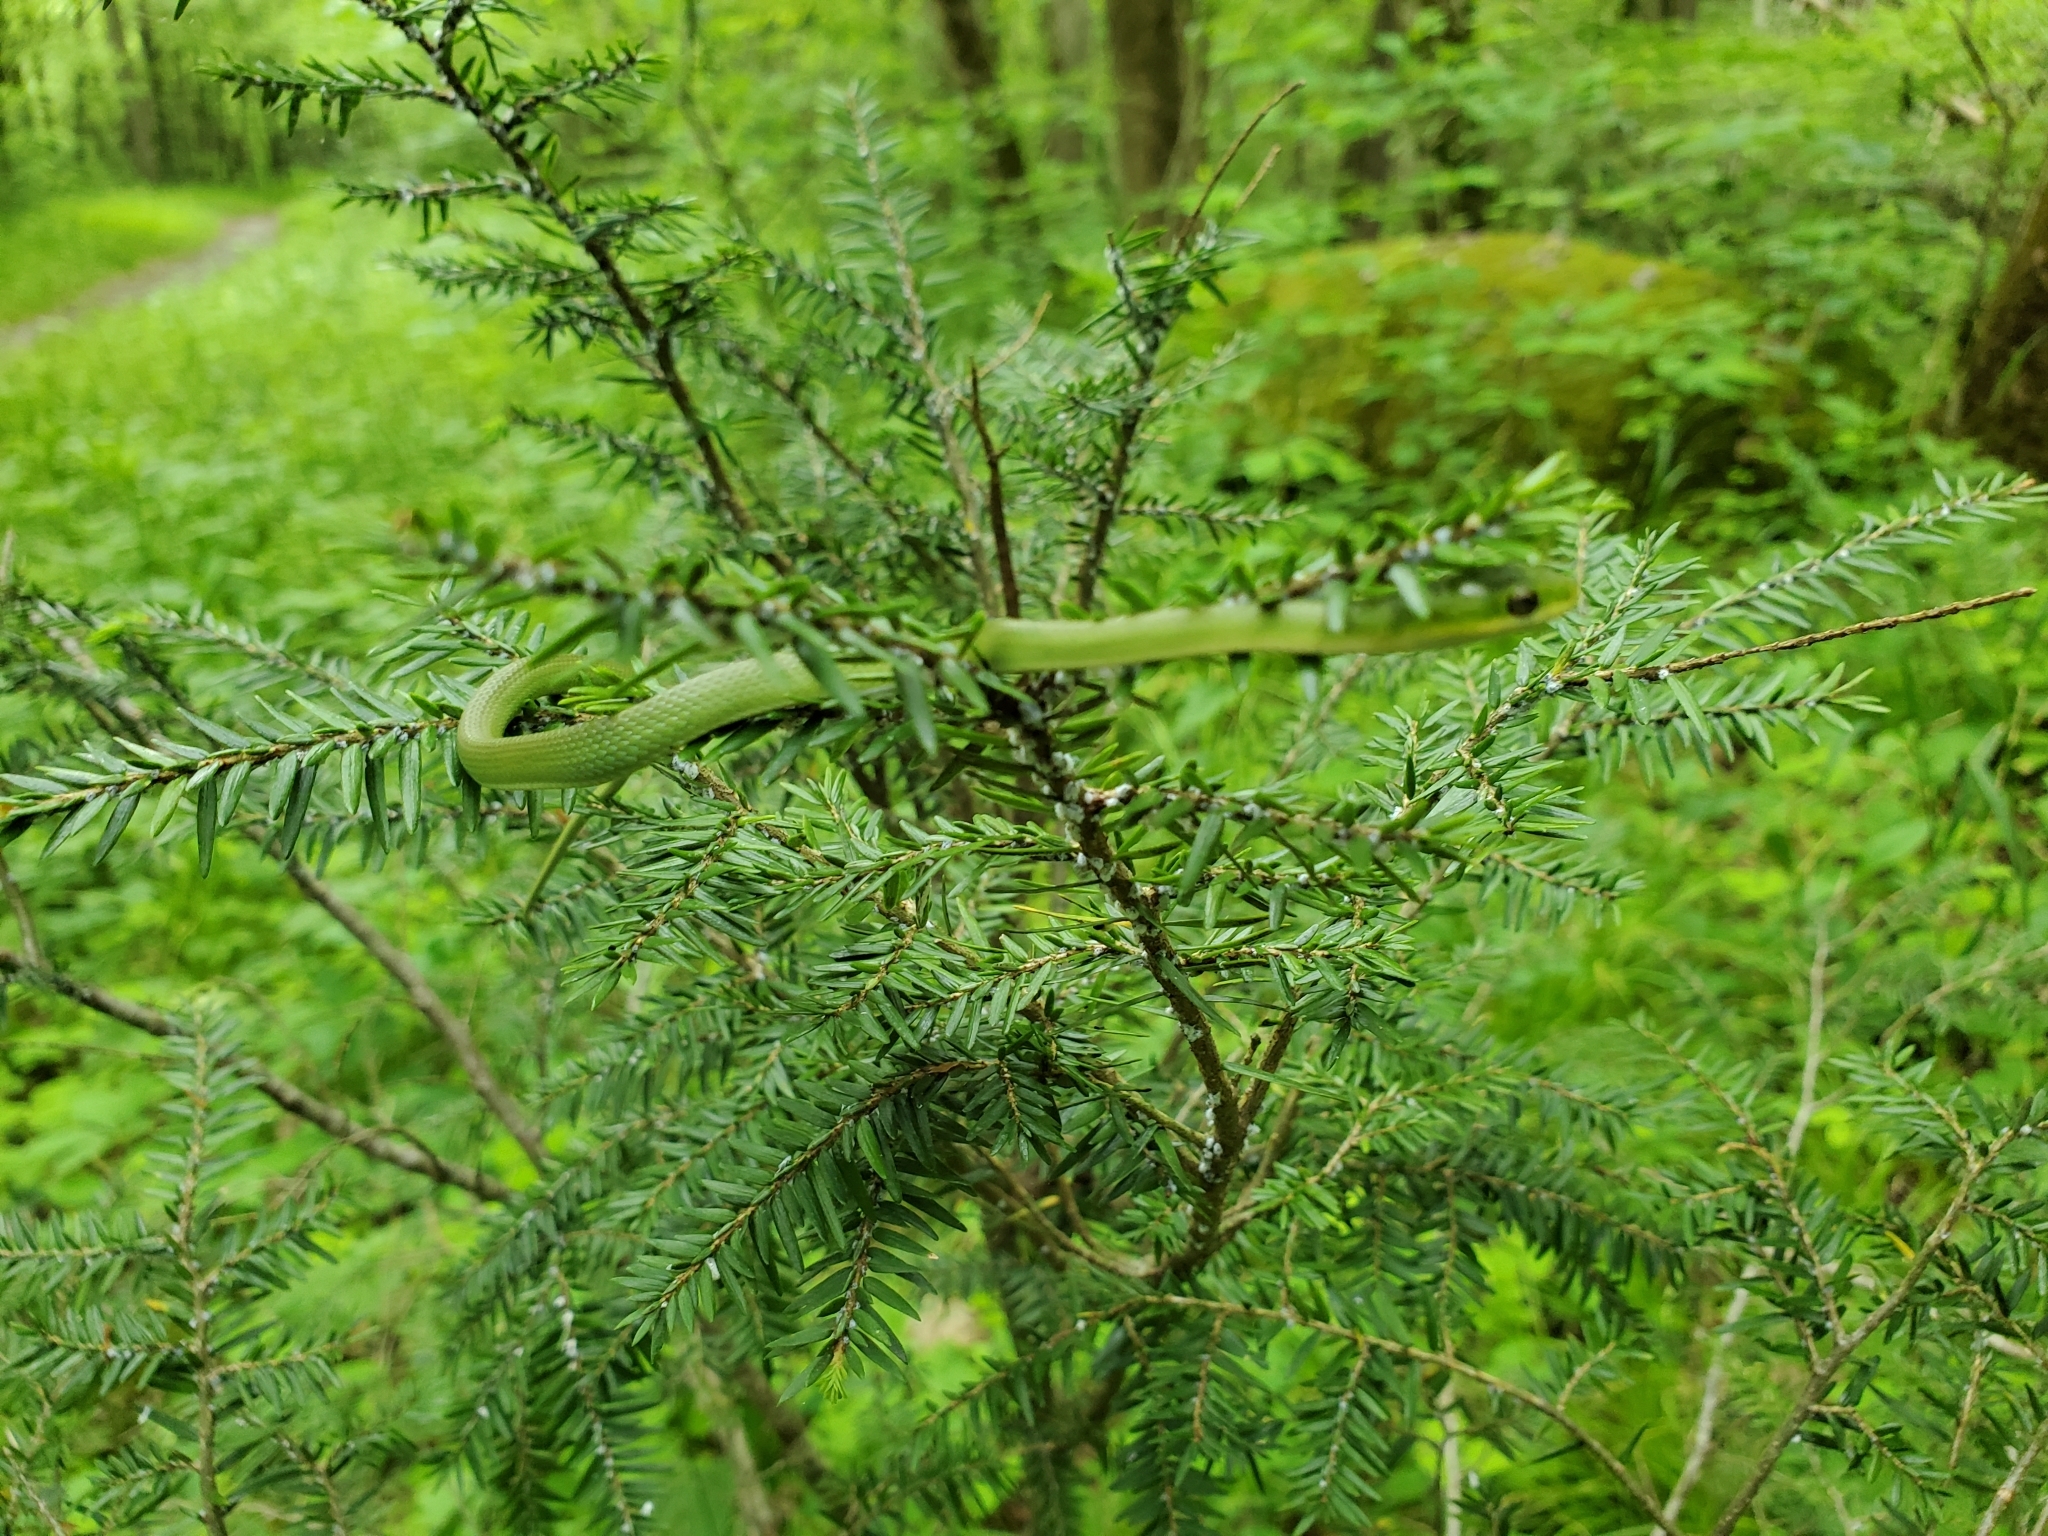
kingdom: Animalia
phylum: Chordata
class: Squamata
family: Colubridae
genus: Opheodrys
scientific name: Opheodrys aestivus
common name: Rough greensnake
